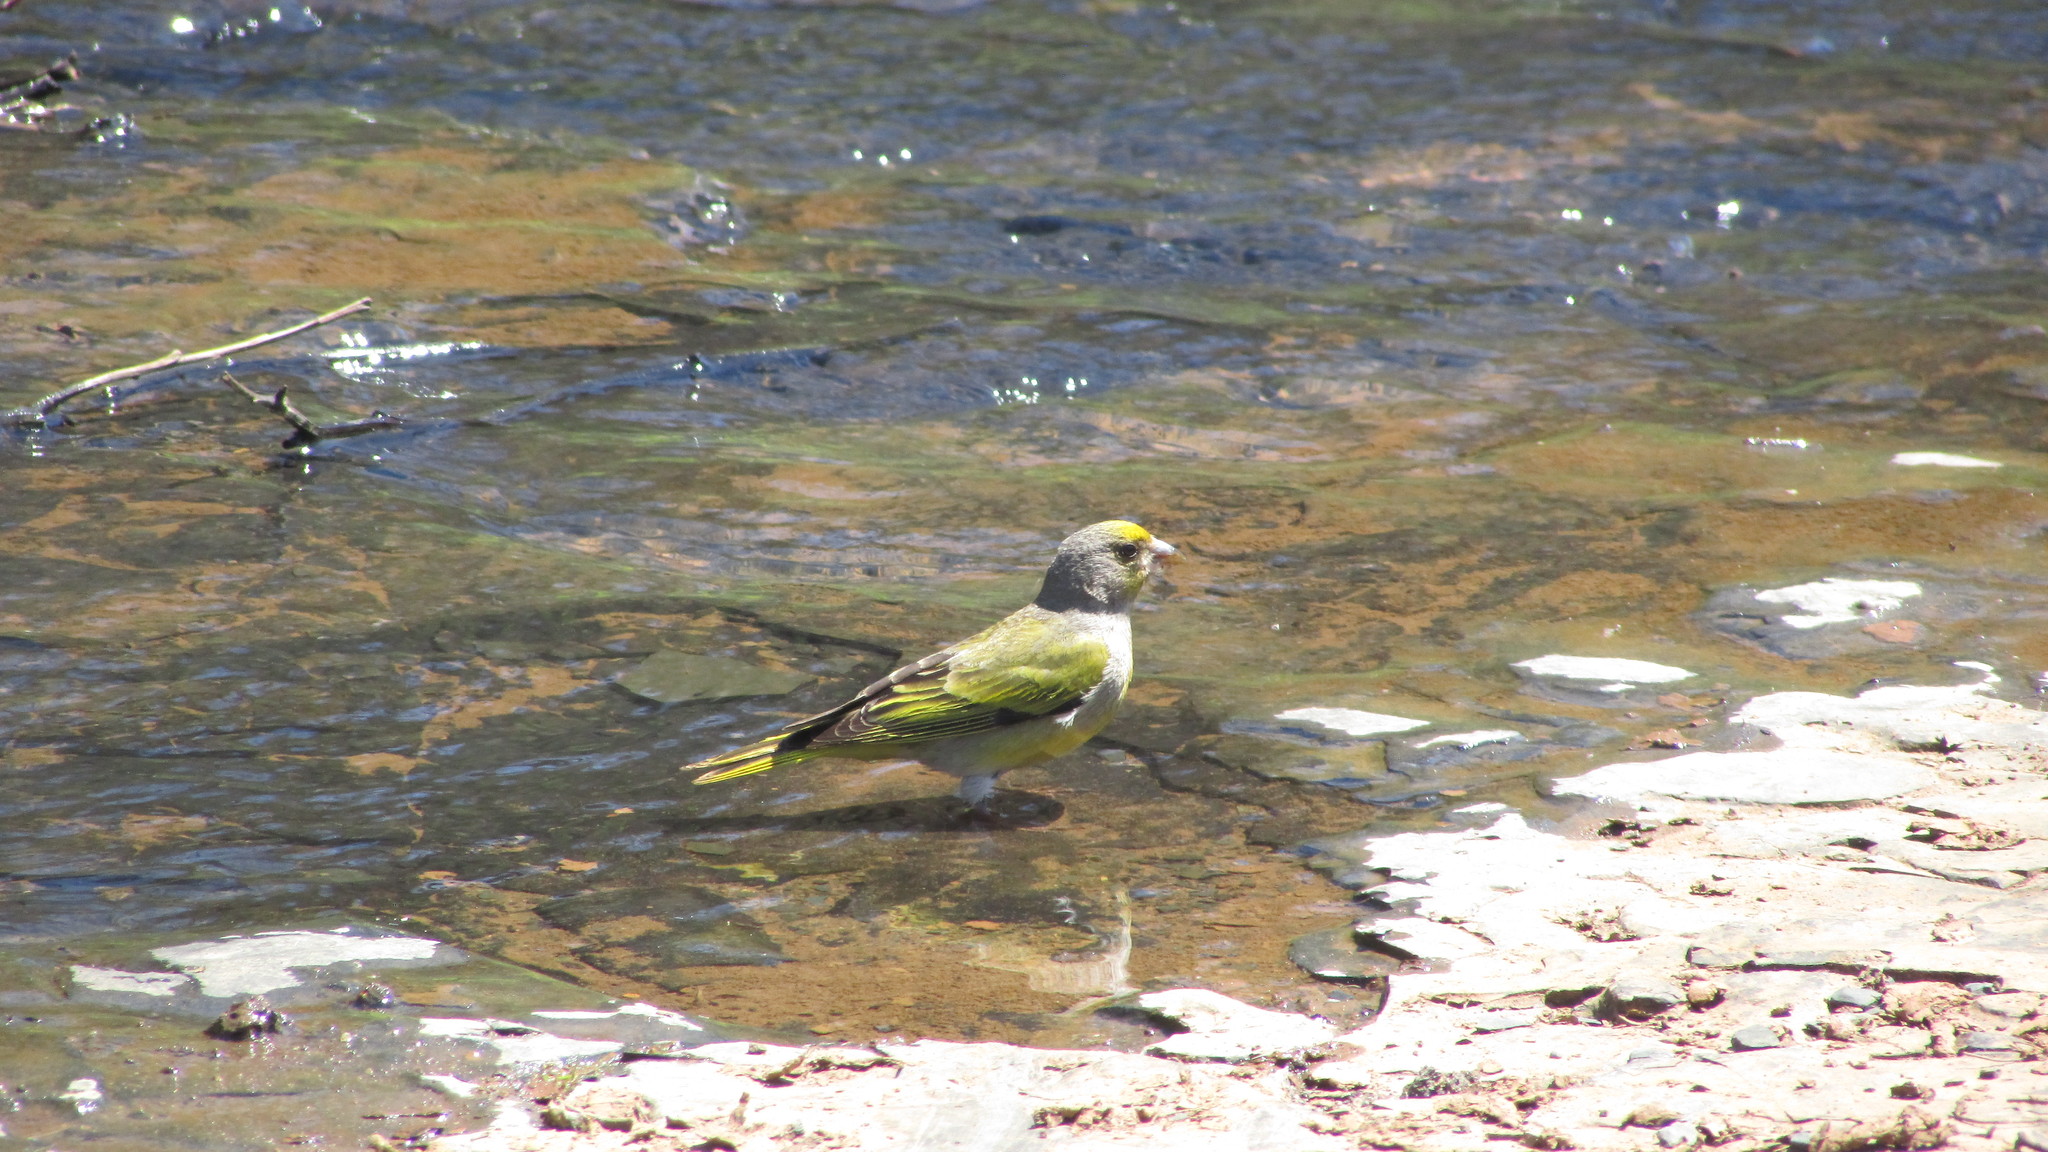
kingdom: Animalia
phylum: Chordata
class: Aves
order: Passeriformes
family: Fringillidae
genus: Serinus
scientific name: Serinus canicollis
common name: Cape canary
